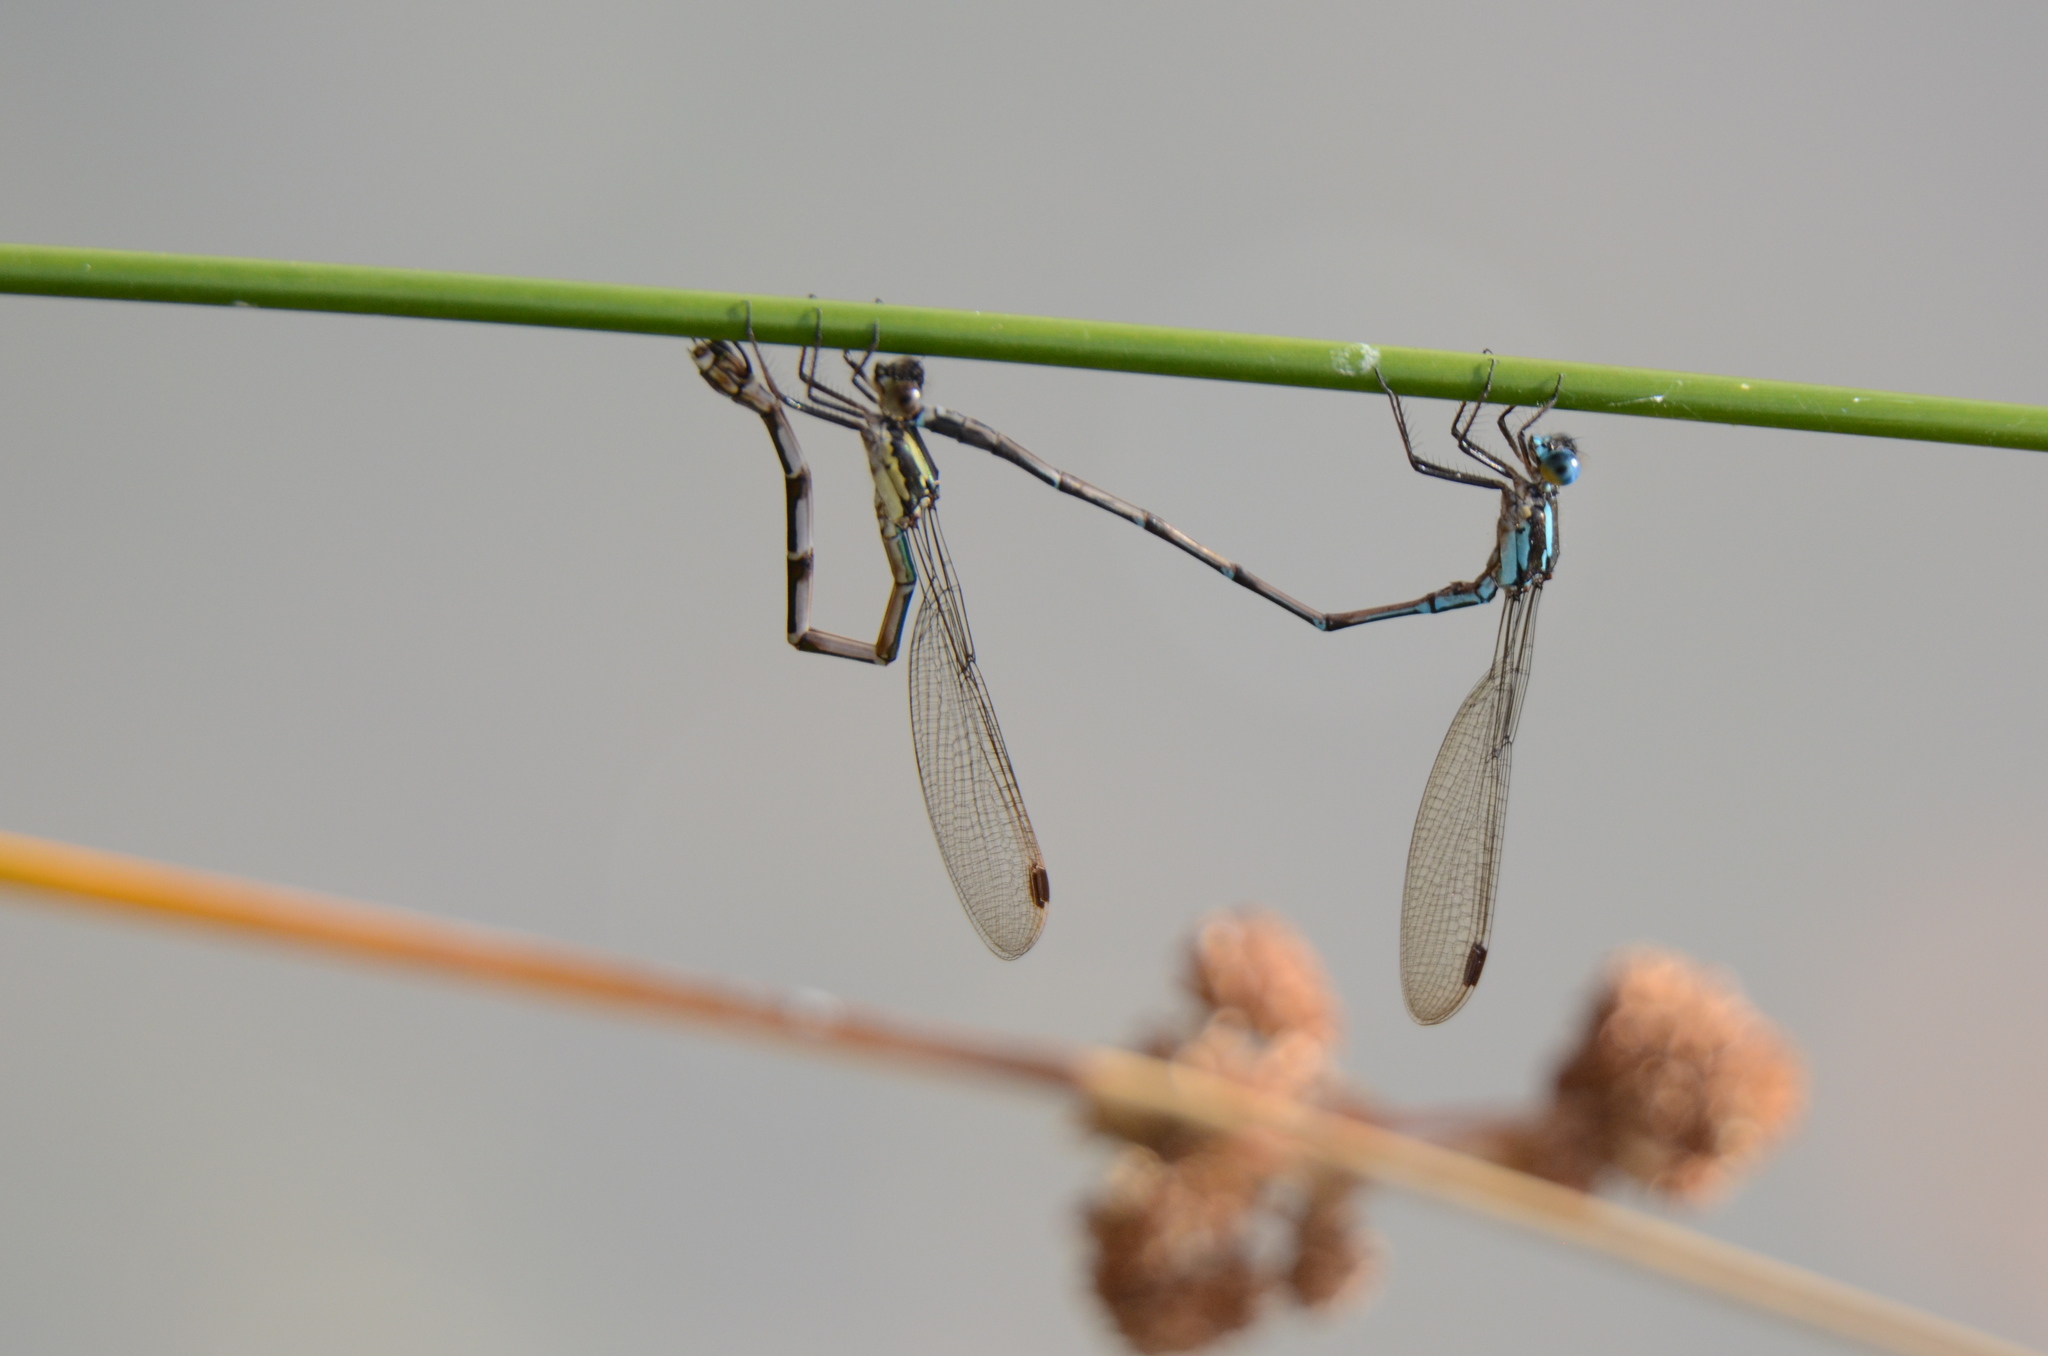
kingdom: Animalia
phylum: Arthropoda
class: Insecta
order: Odonata
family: Lestidae
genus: Austrolestes
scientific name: Austrolestes colensonis
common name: Blue damselfly
